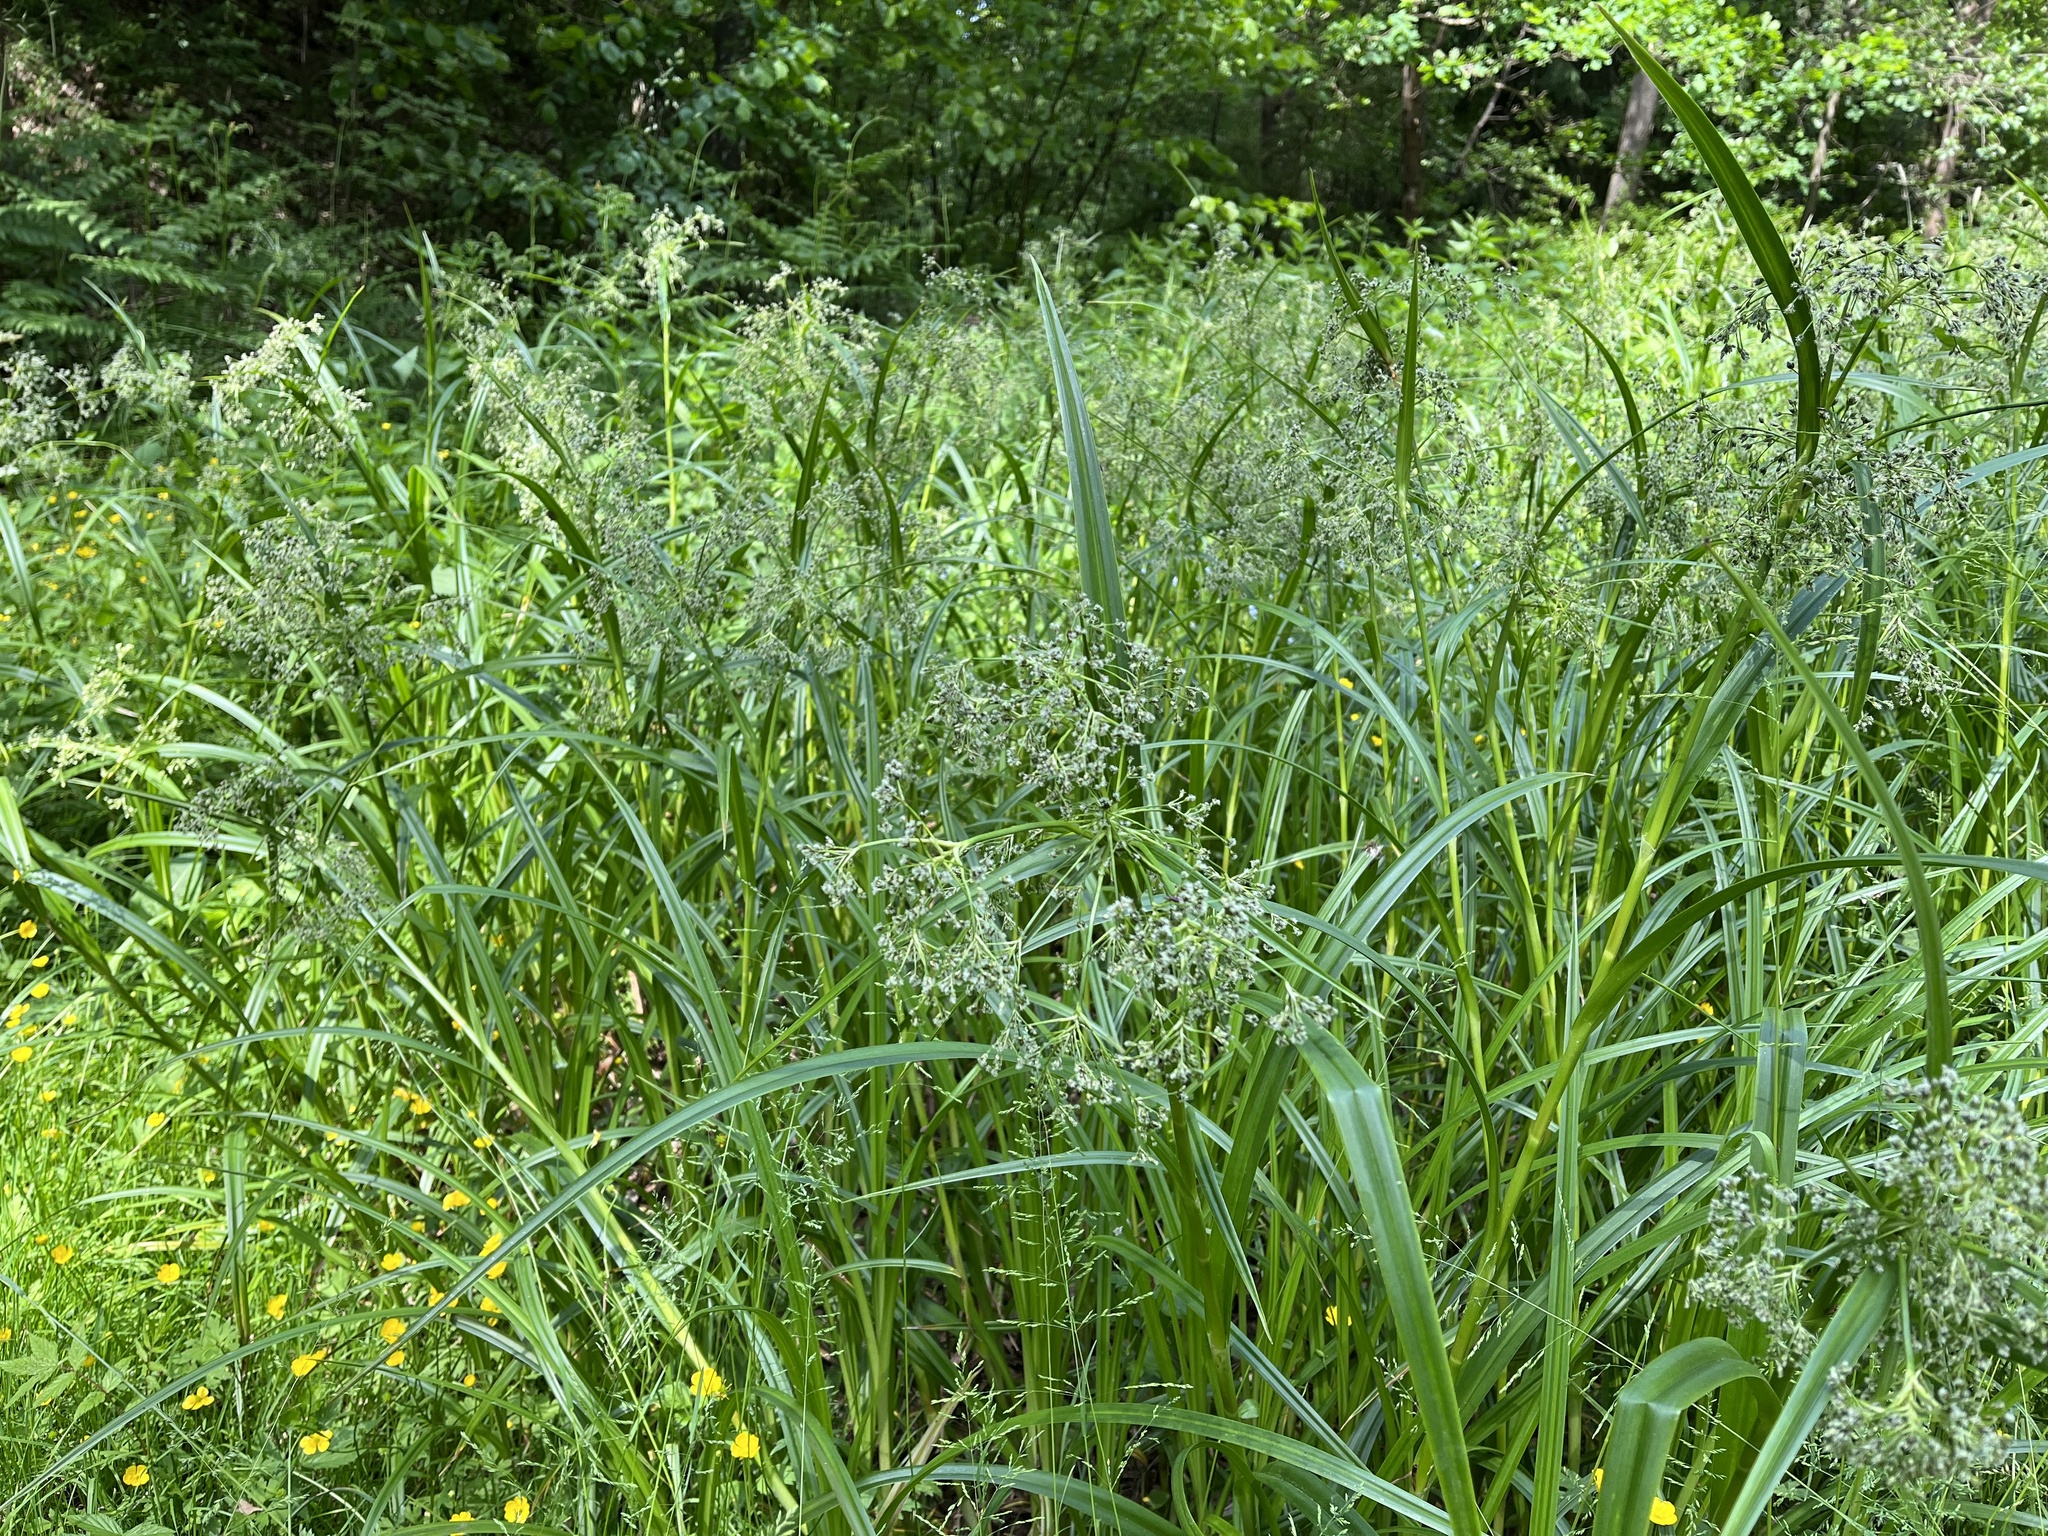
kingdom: Plantae
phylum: Tracheophyta
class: Liliopsida
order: Poales
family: Cyperaceae
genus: Scirpus
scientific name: Scirpus sylvaticus
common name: Wood club-rush
